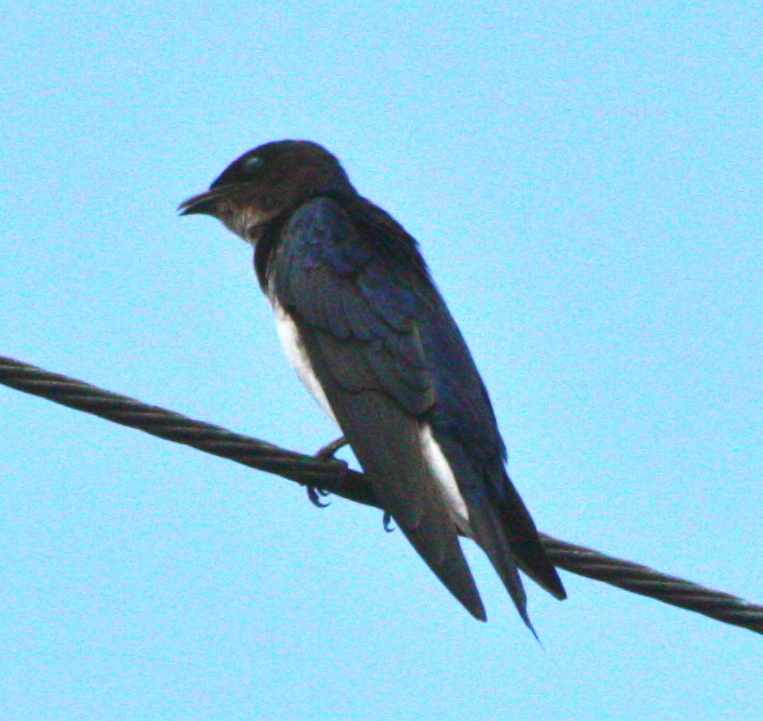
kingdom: Animalia
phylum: Chordata
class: Aves
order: Passeriformes
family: Hirundinidae
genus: Progne
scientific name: Progne chalybea
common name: Grey-breasted martin
